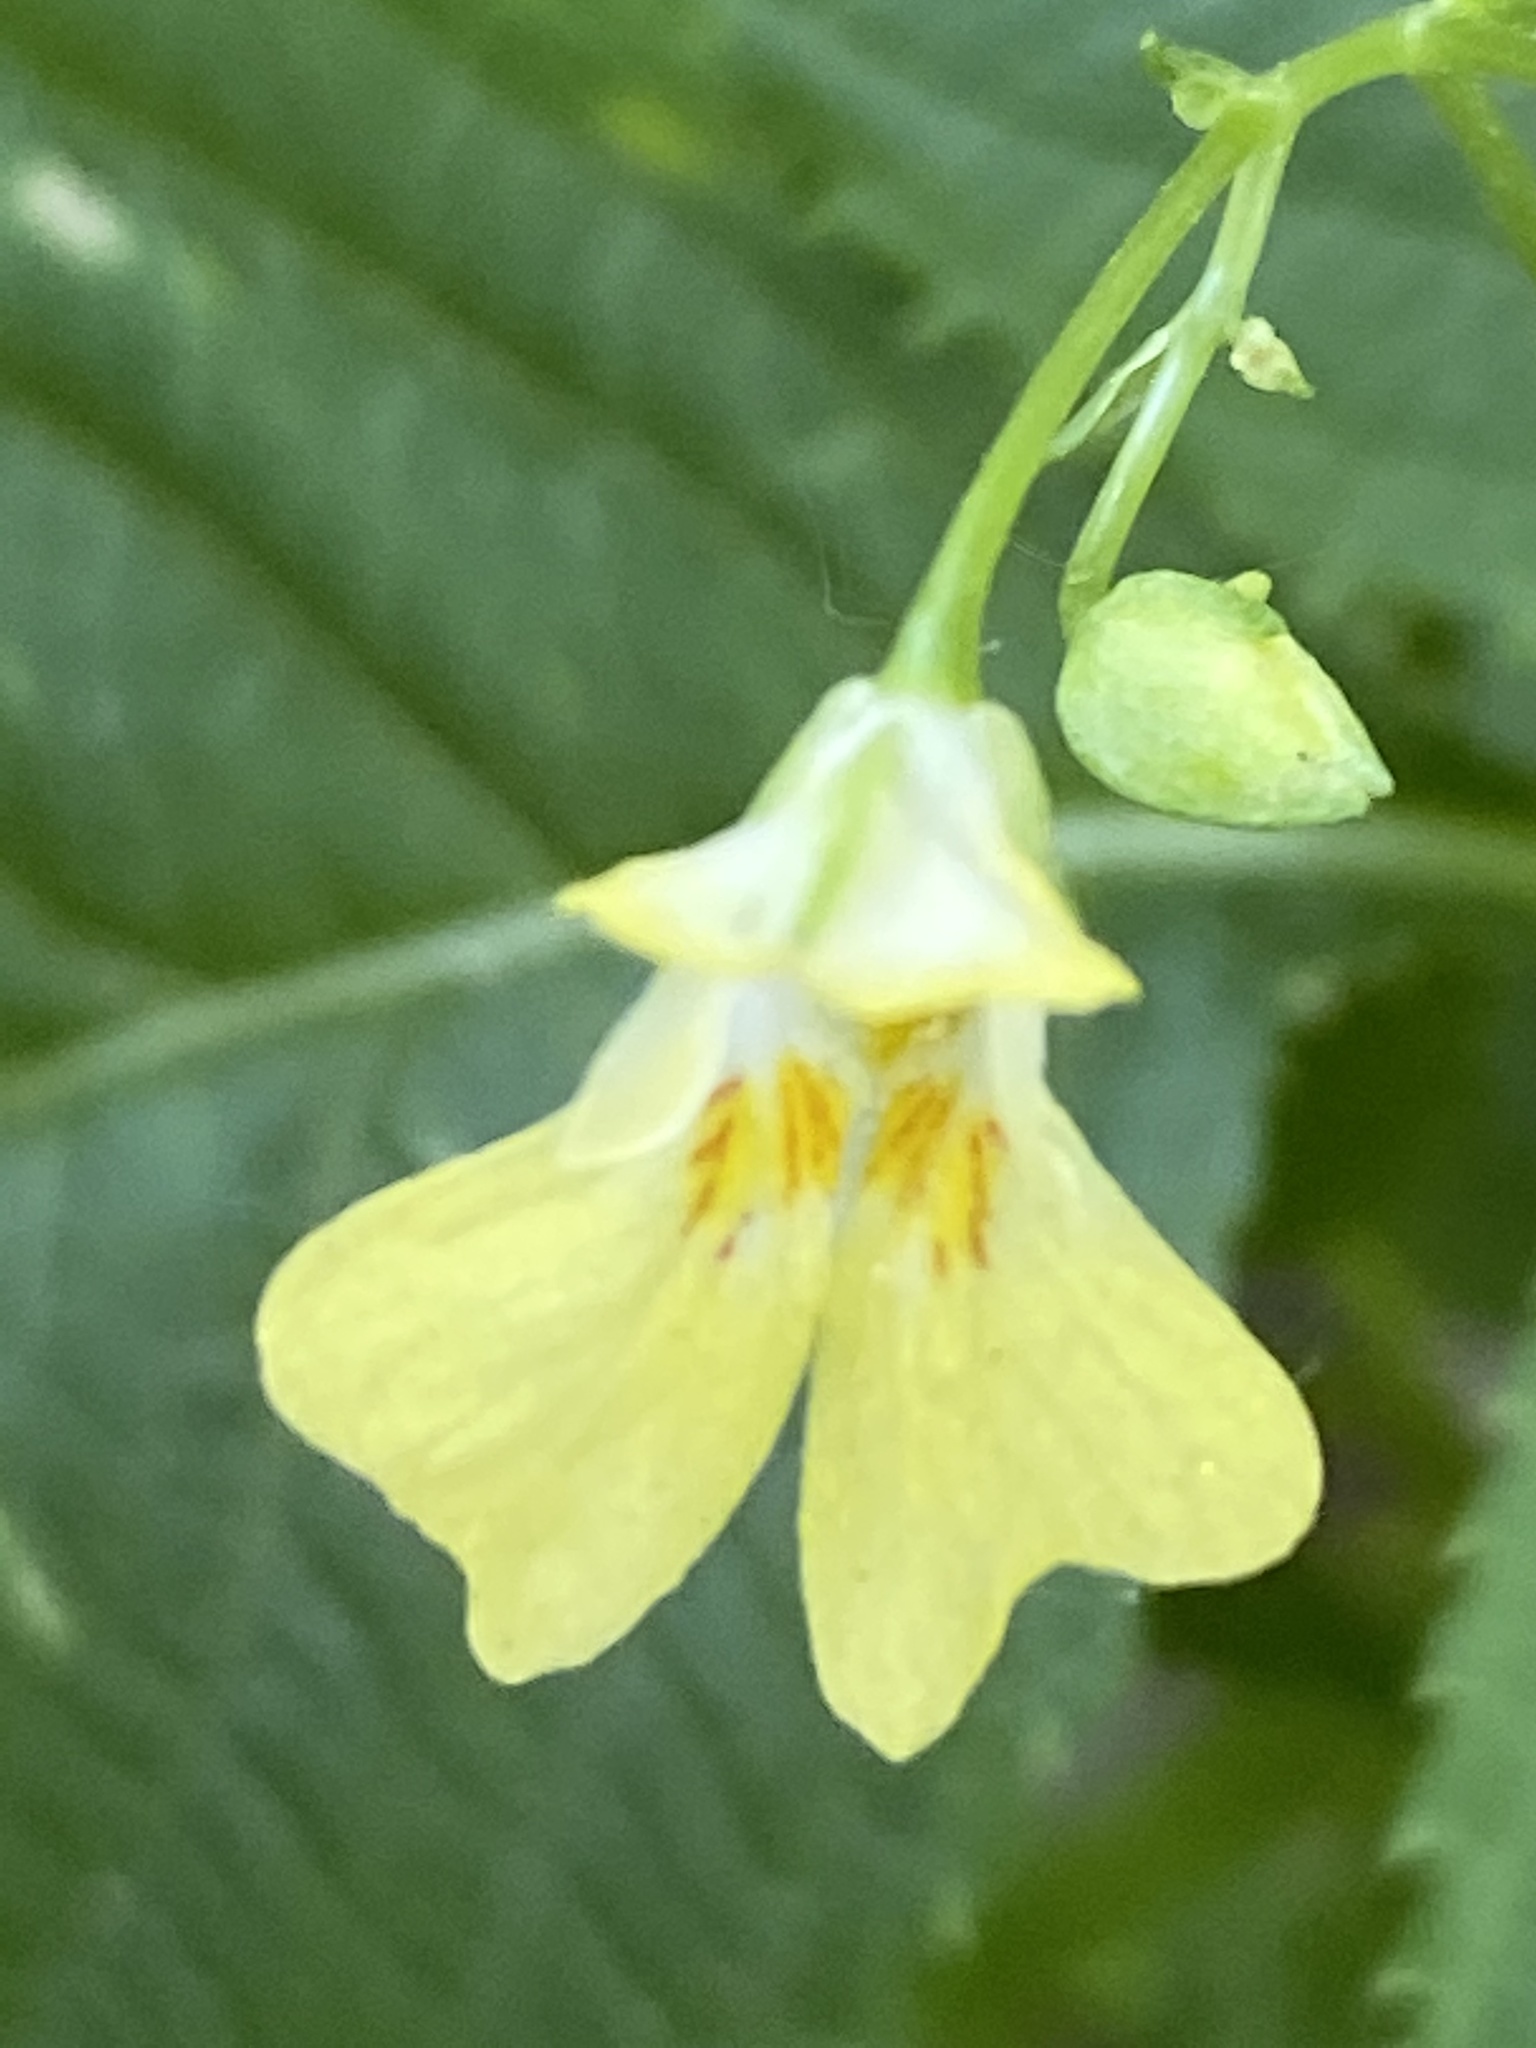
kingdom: Plantae
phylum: Tracheophyta
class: Magnoliopsida
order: Ericales
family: Balsaminaceae
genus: Impatiens
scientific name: Impatiens parviflora
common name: Small balsam
